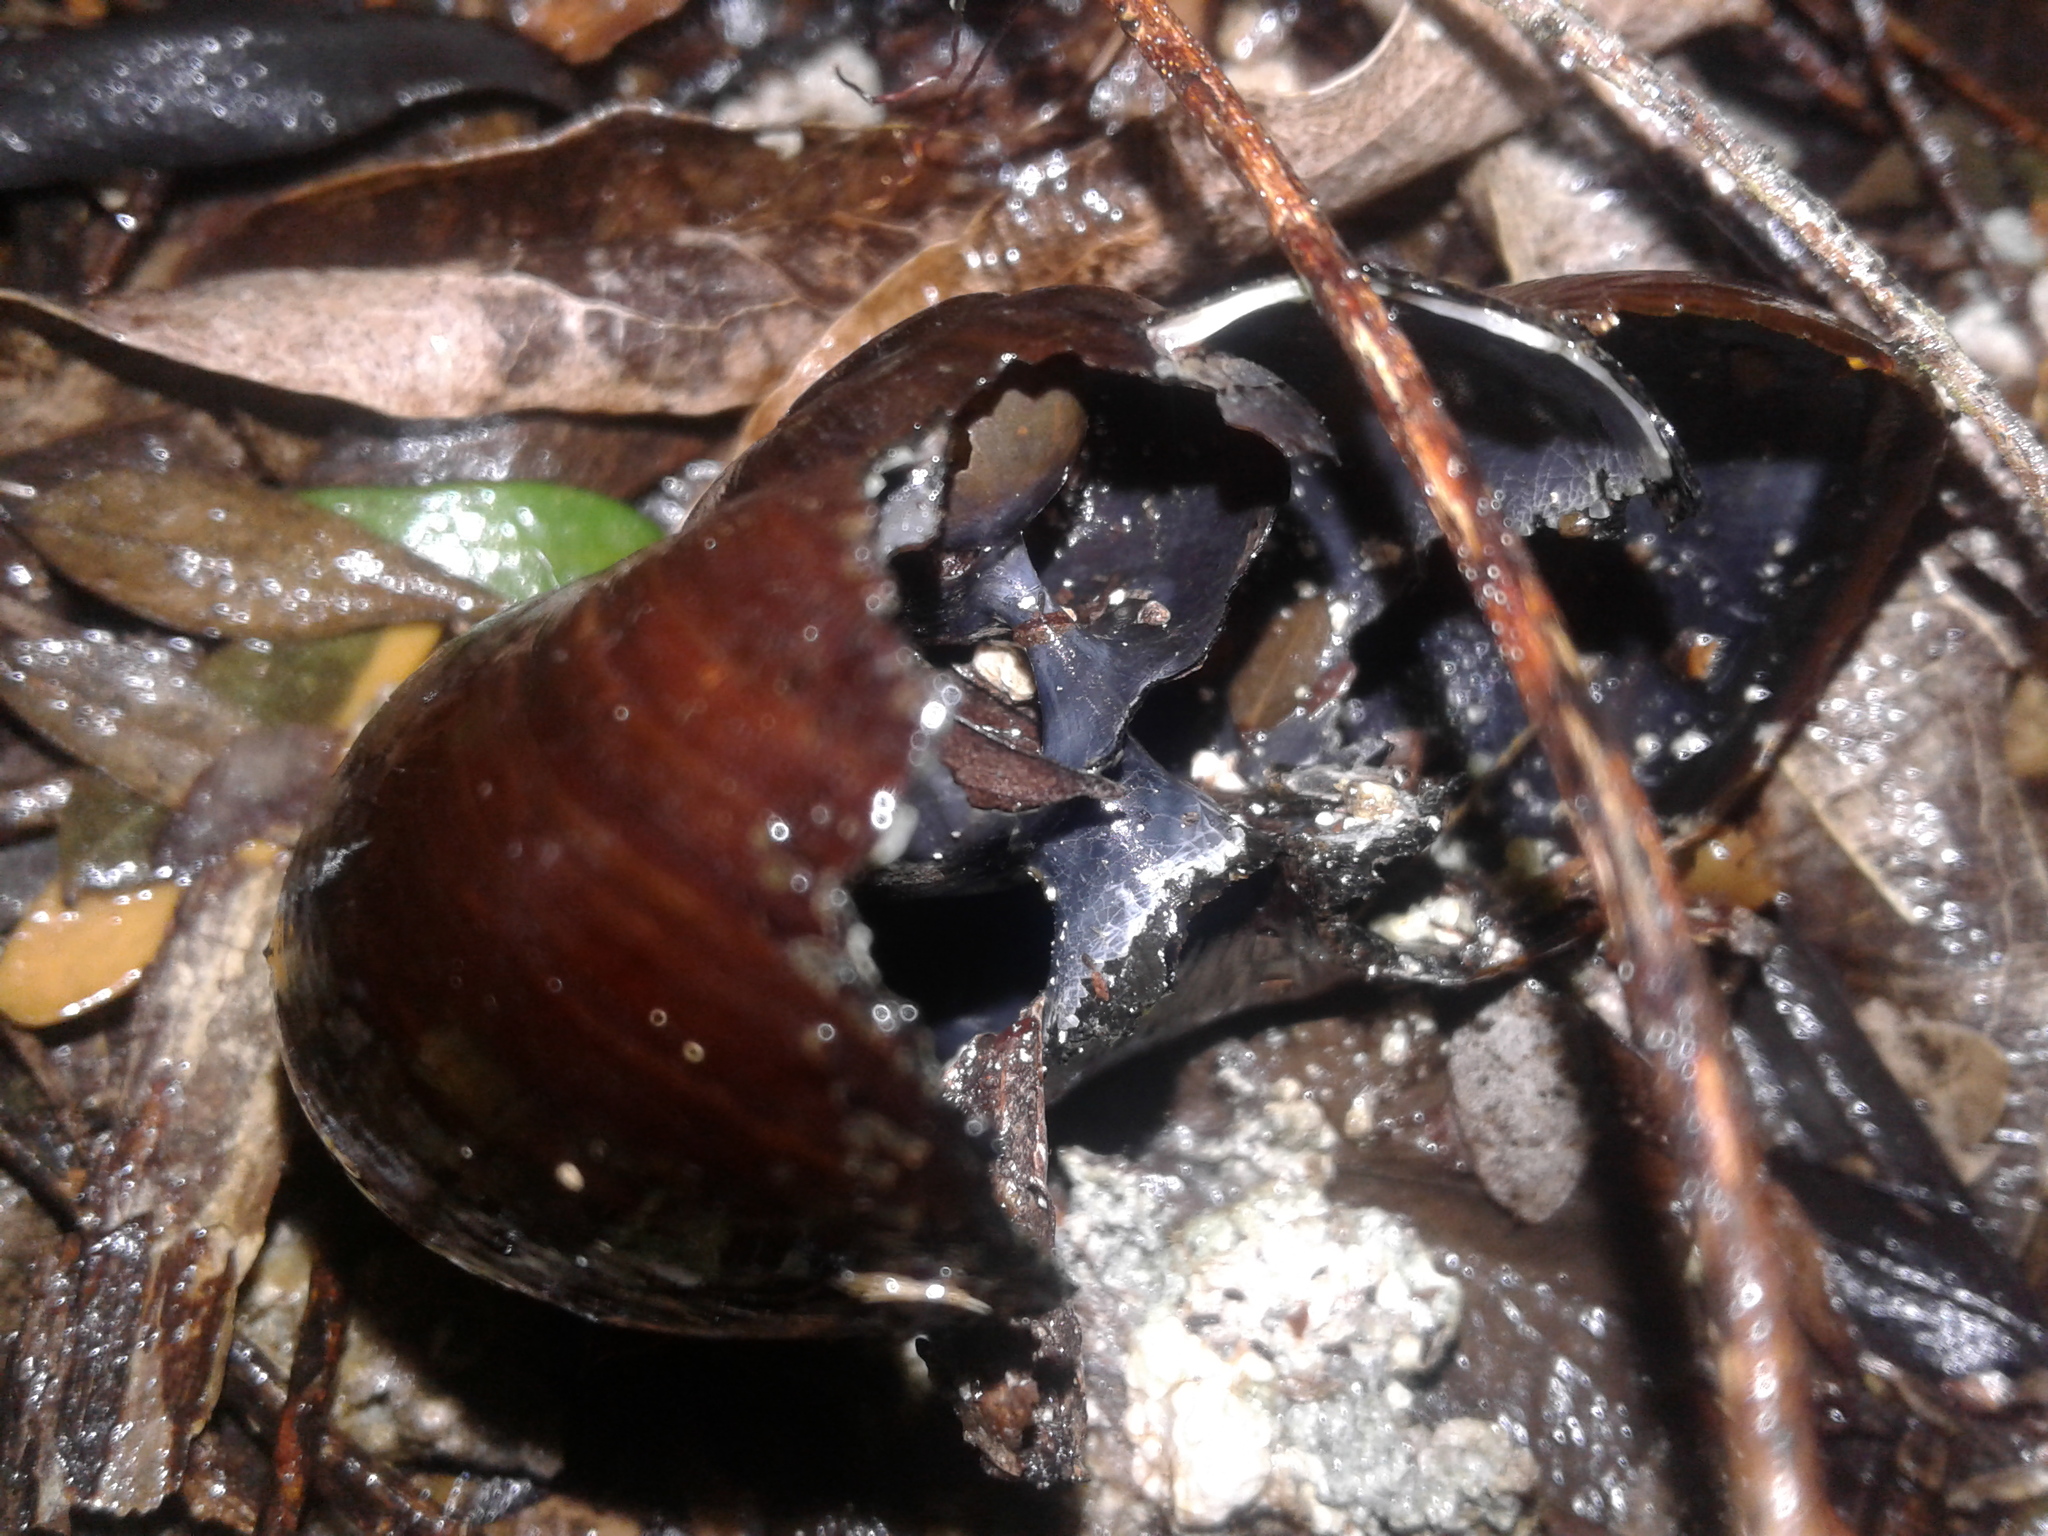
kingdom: Animalia
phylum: Mollusca
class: Gastropoda
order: Stylommatophora
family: Rhytididae
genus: Powelliphanta
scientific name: Powelliphanta superba
